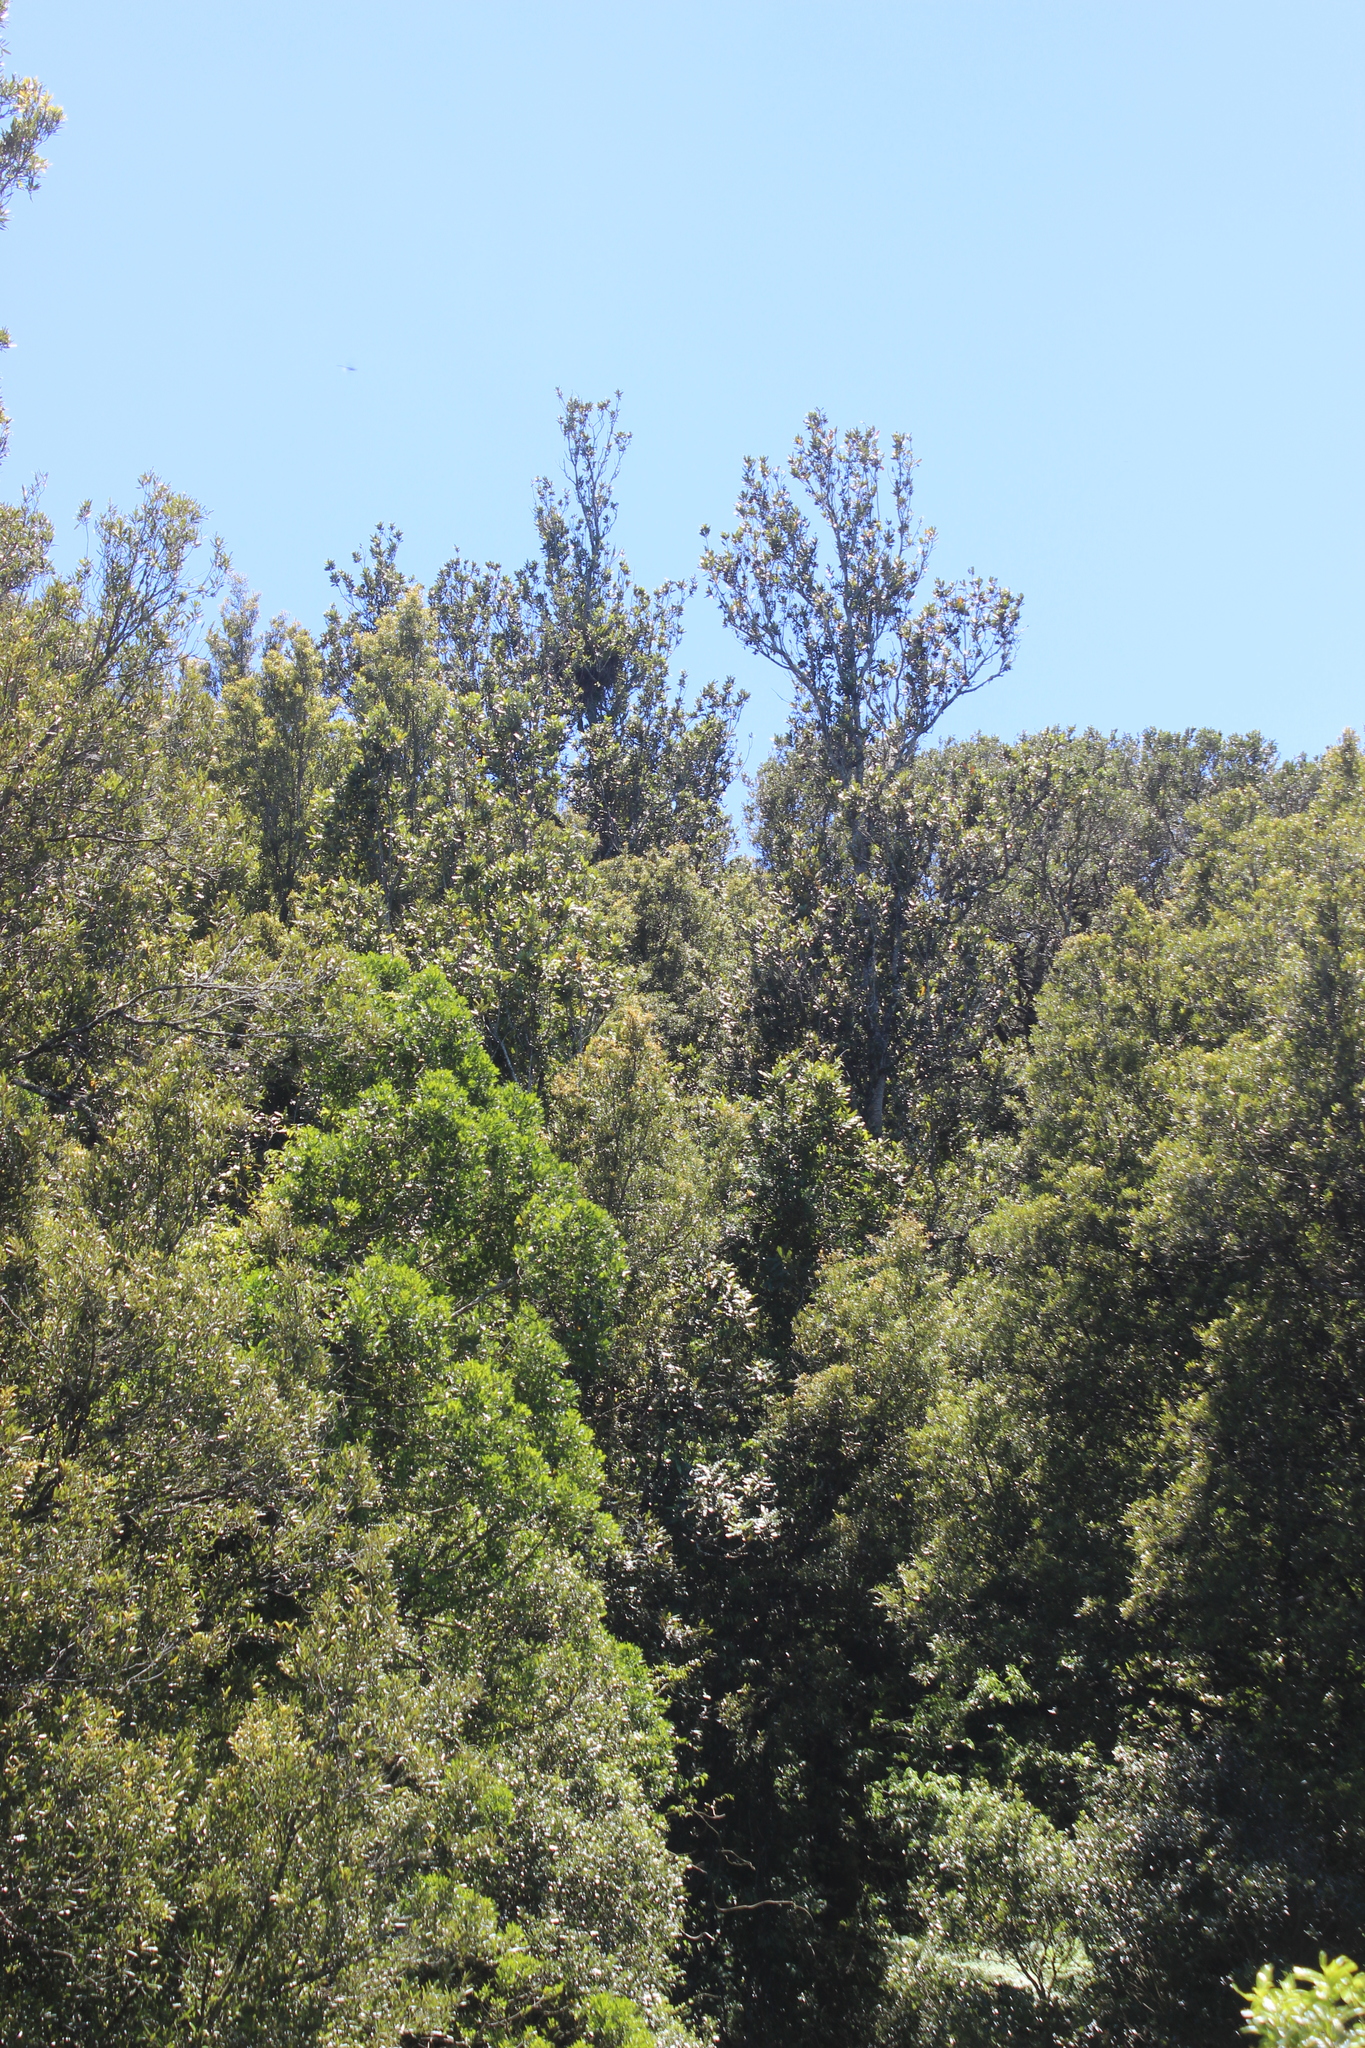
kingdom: Plantae
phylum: Tracheophyta
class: Magnoliopsida
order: Proteales
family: Proteaceae
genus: Knightia
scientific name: Knightia excelsa
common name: New zealand-honeysuckle
